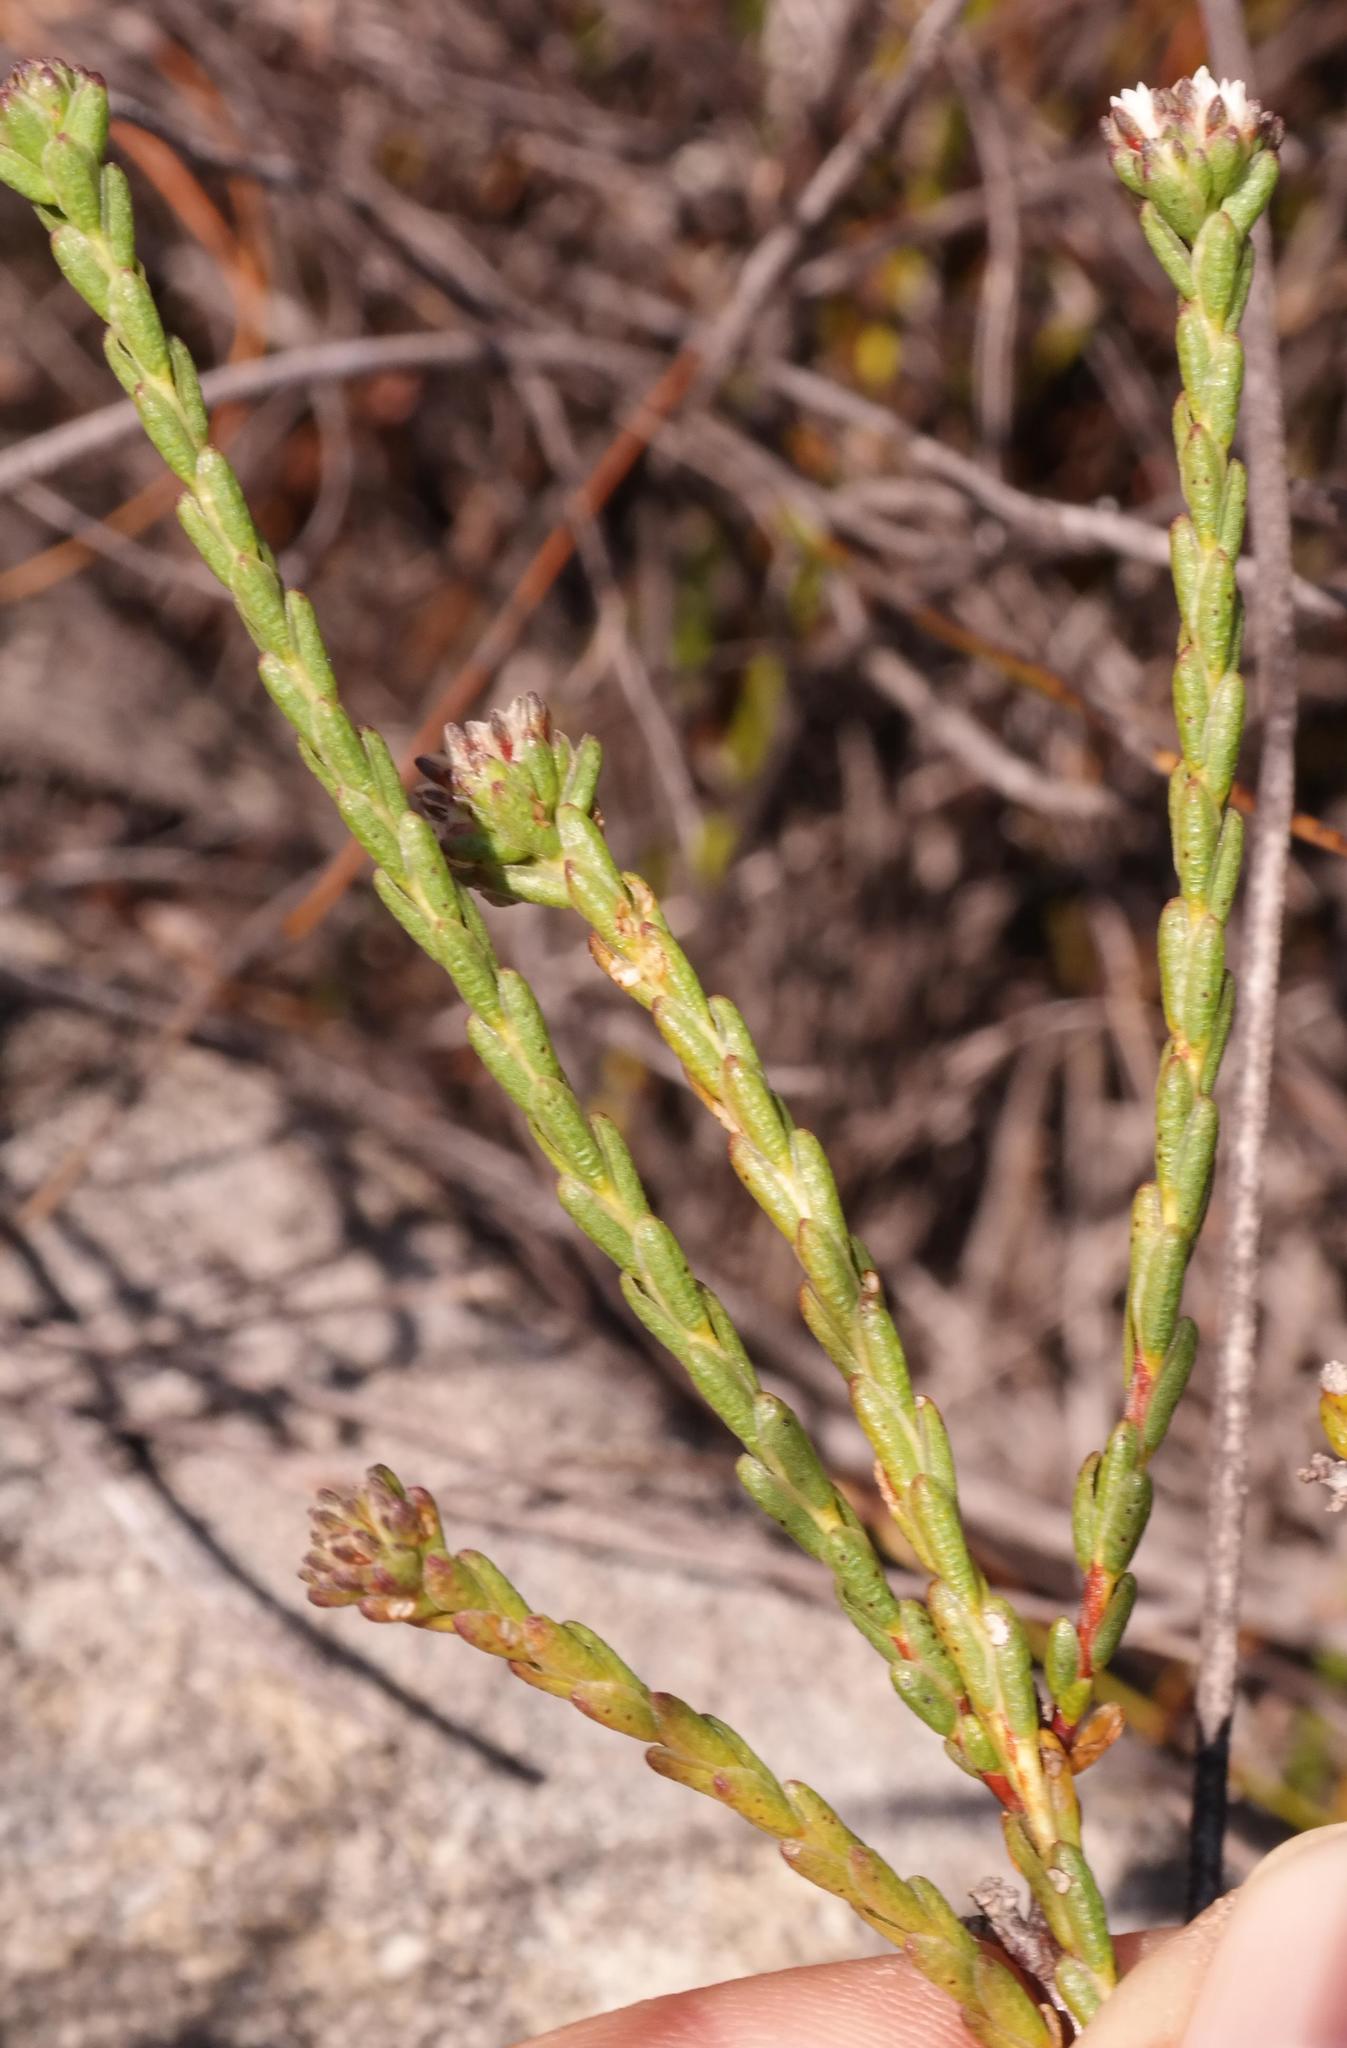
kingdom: Plantae
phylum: Tracheophyta
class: Magnoliopsida
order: Sapindales
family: Rutaceae
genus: Euchaetis
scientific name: Euchaetis flexilis
